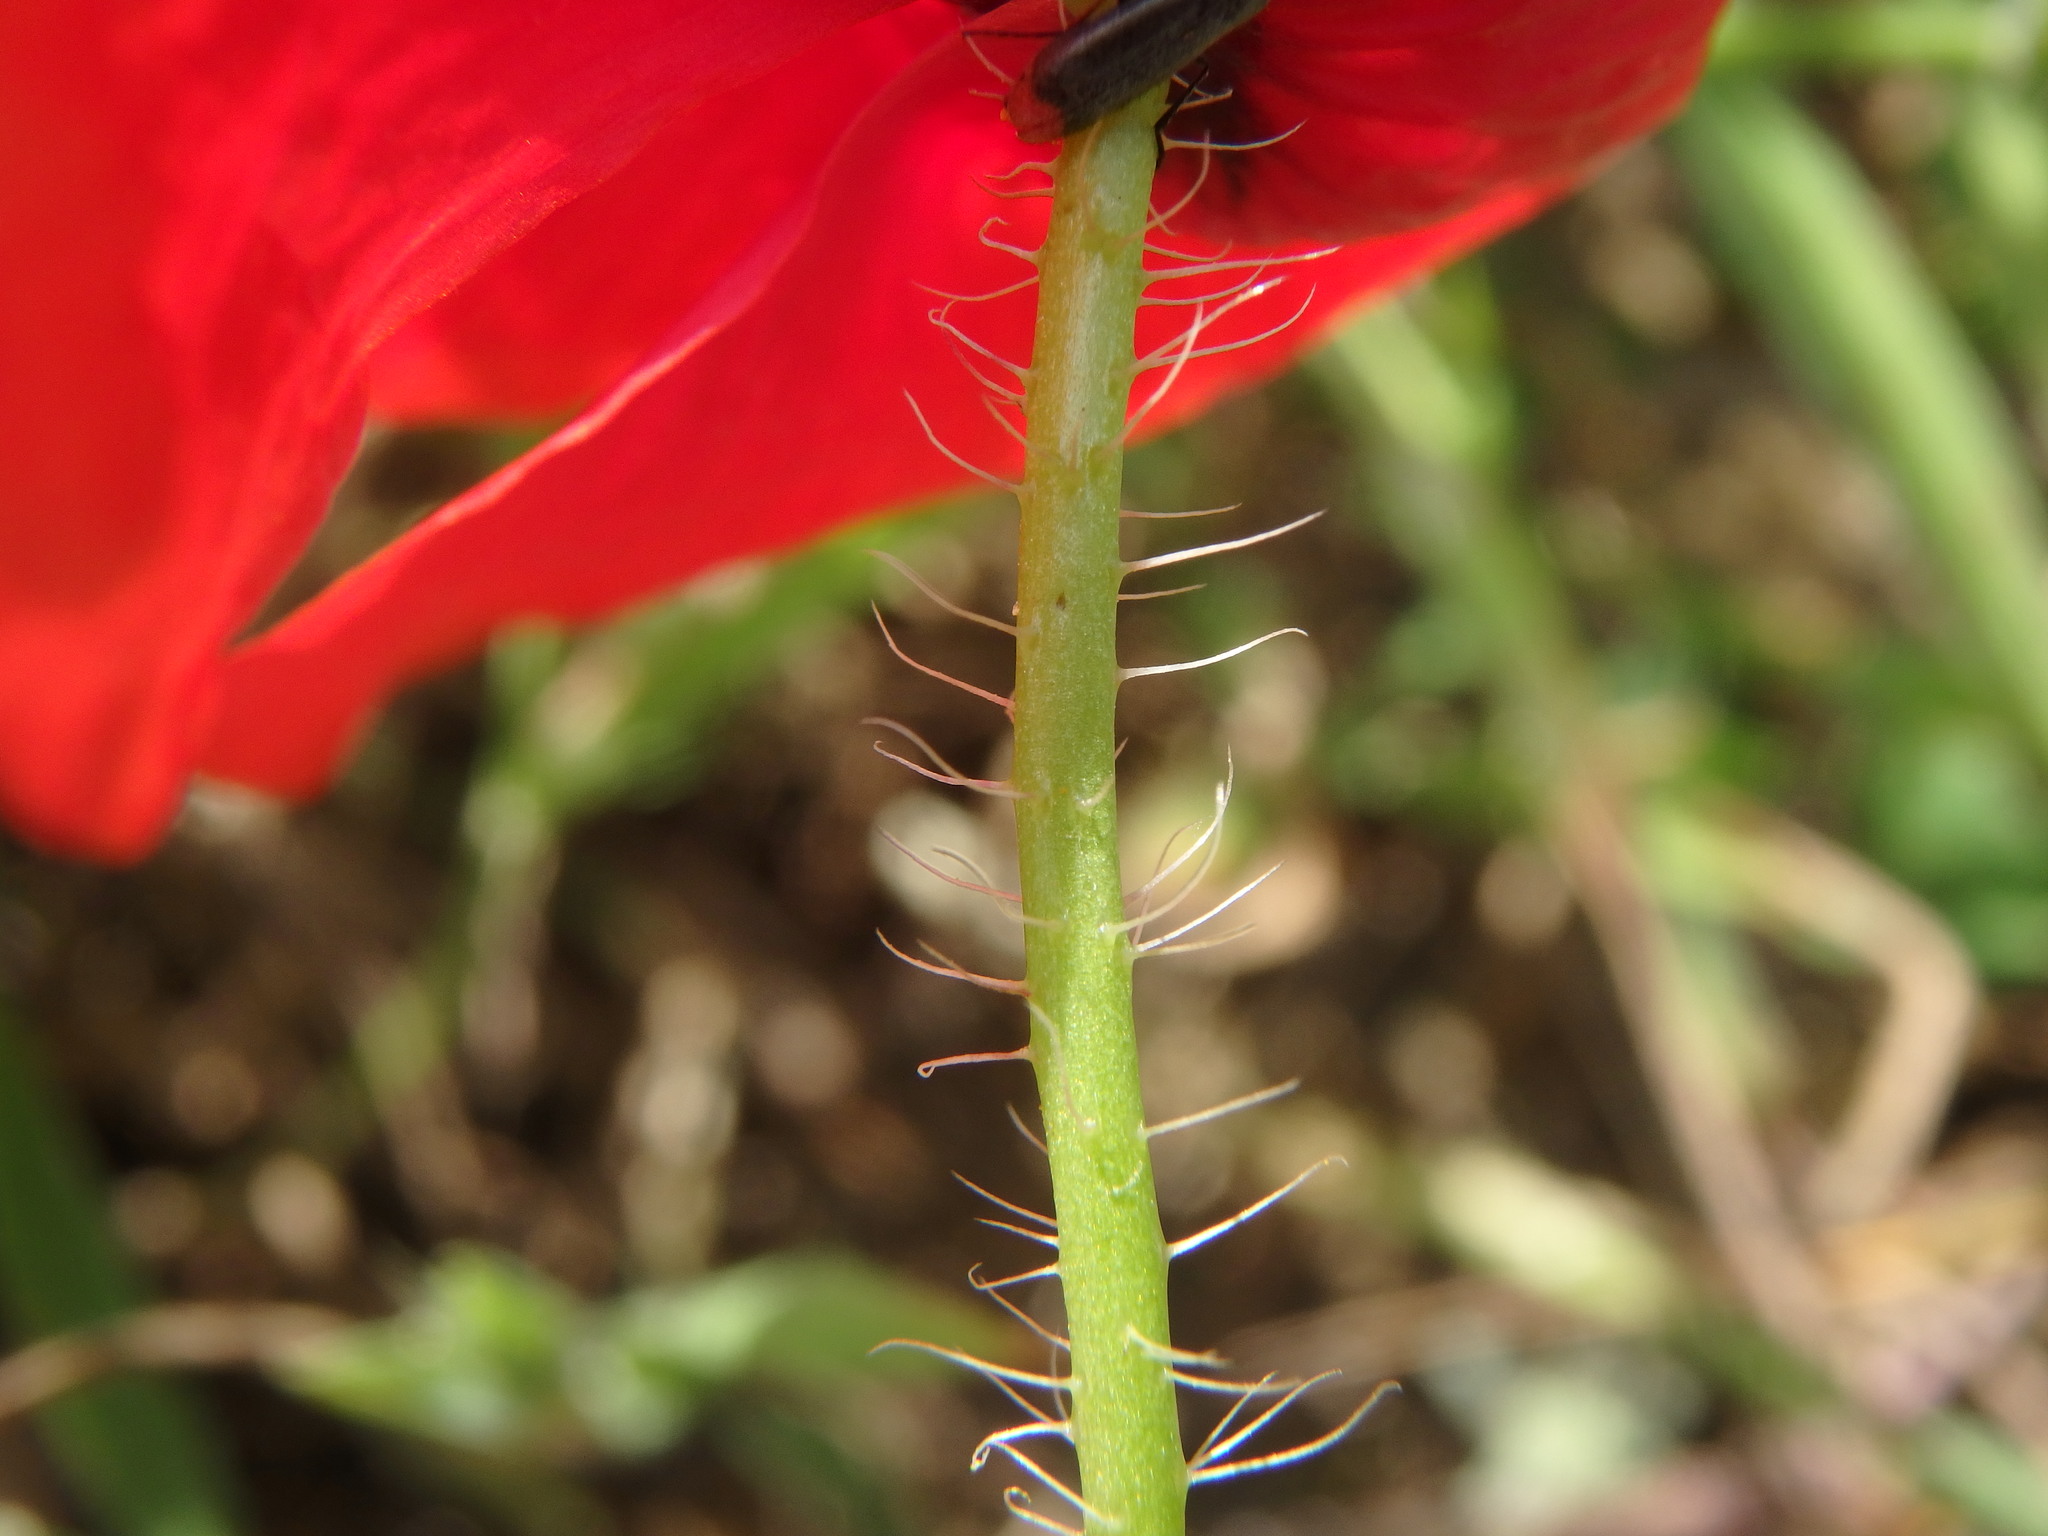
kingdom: Plantae
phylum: Tracheophyta
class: Magnoliopsida
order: Ranunculales
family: Papaveraceae
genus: Papaver
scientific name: Papaver rhoeas
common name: Corn poppy
